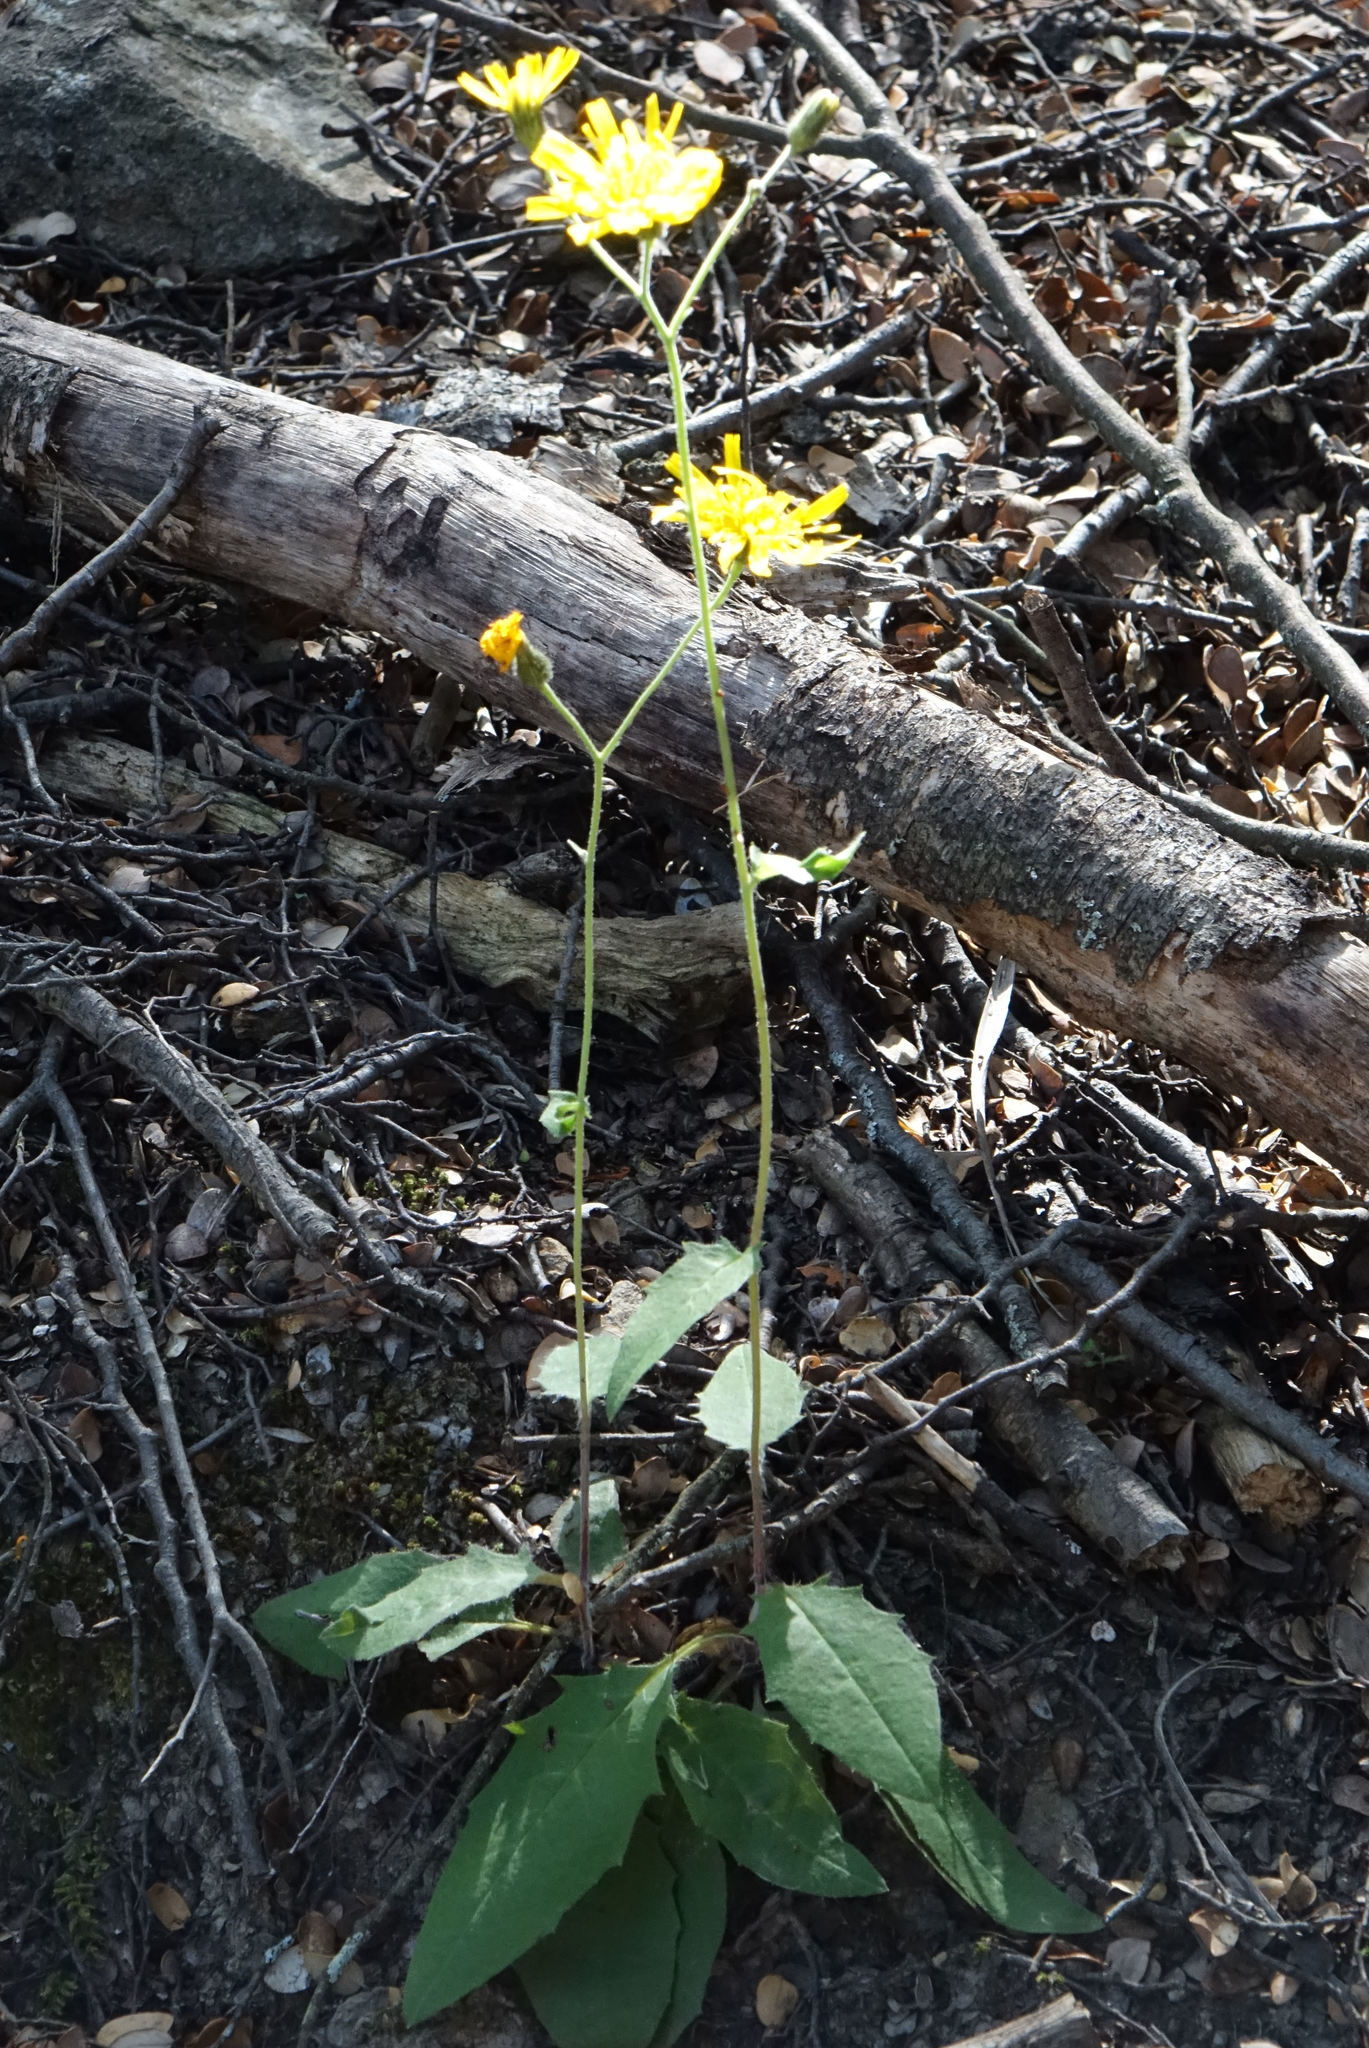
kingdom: Plantae
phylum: Tracheophyta
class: Magnoliopsida
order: Asterales
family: Asteraceae
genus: Hieracium
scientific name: Hieracium lepidulum
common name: Irregular-toothed hawkweed
